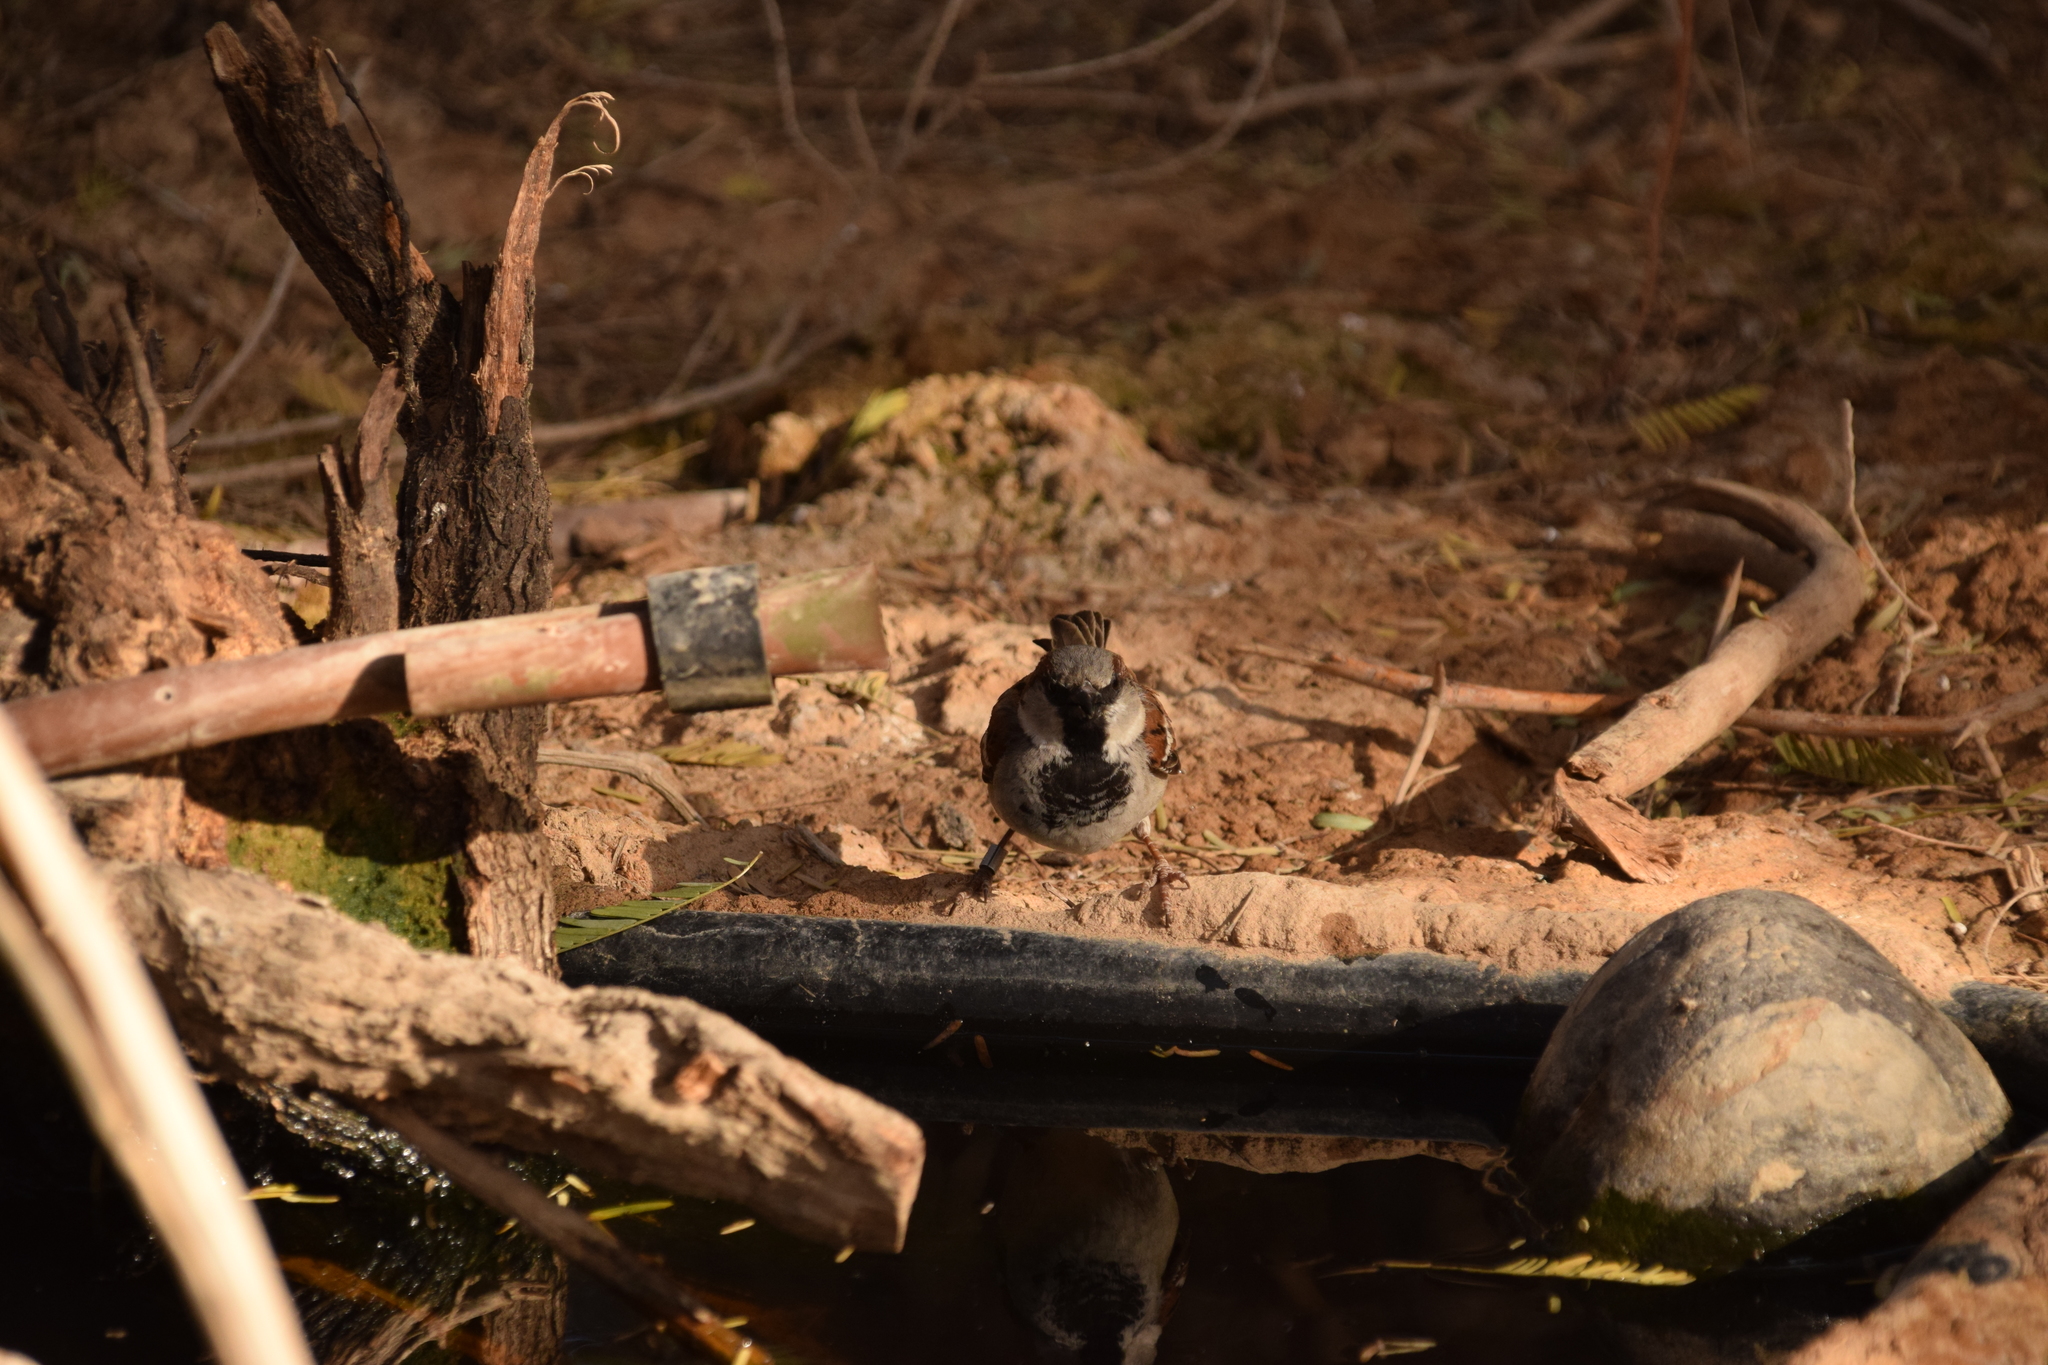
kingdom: Animalia
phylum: Chordata
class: Aves
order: Passeriformes
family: Passeridae
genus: Passer
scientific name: Passer domesticus
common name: House sparrow
